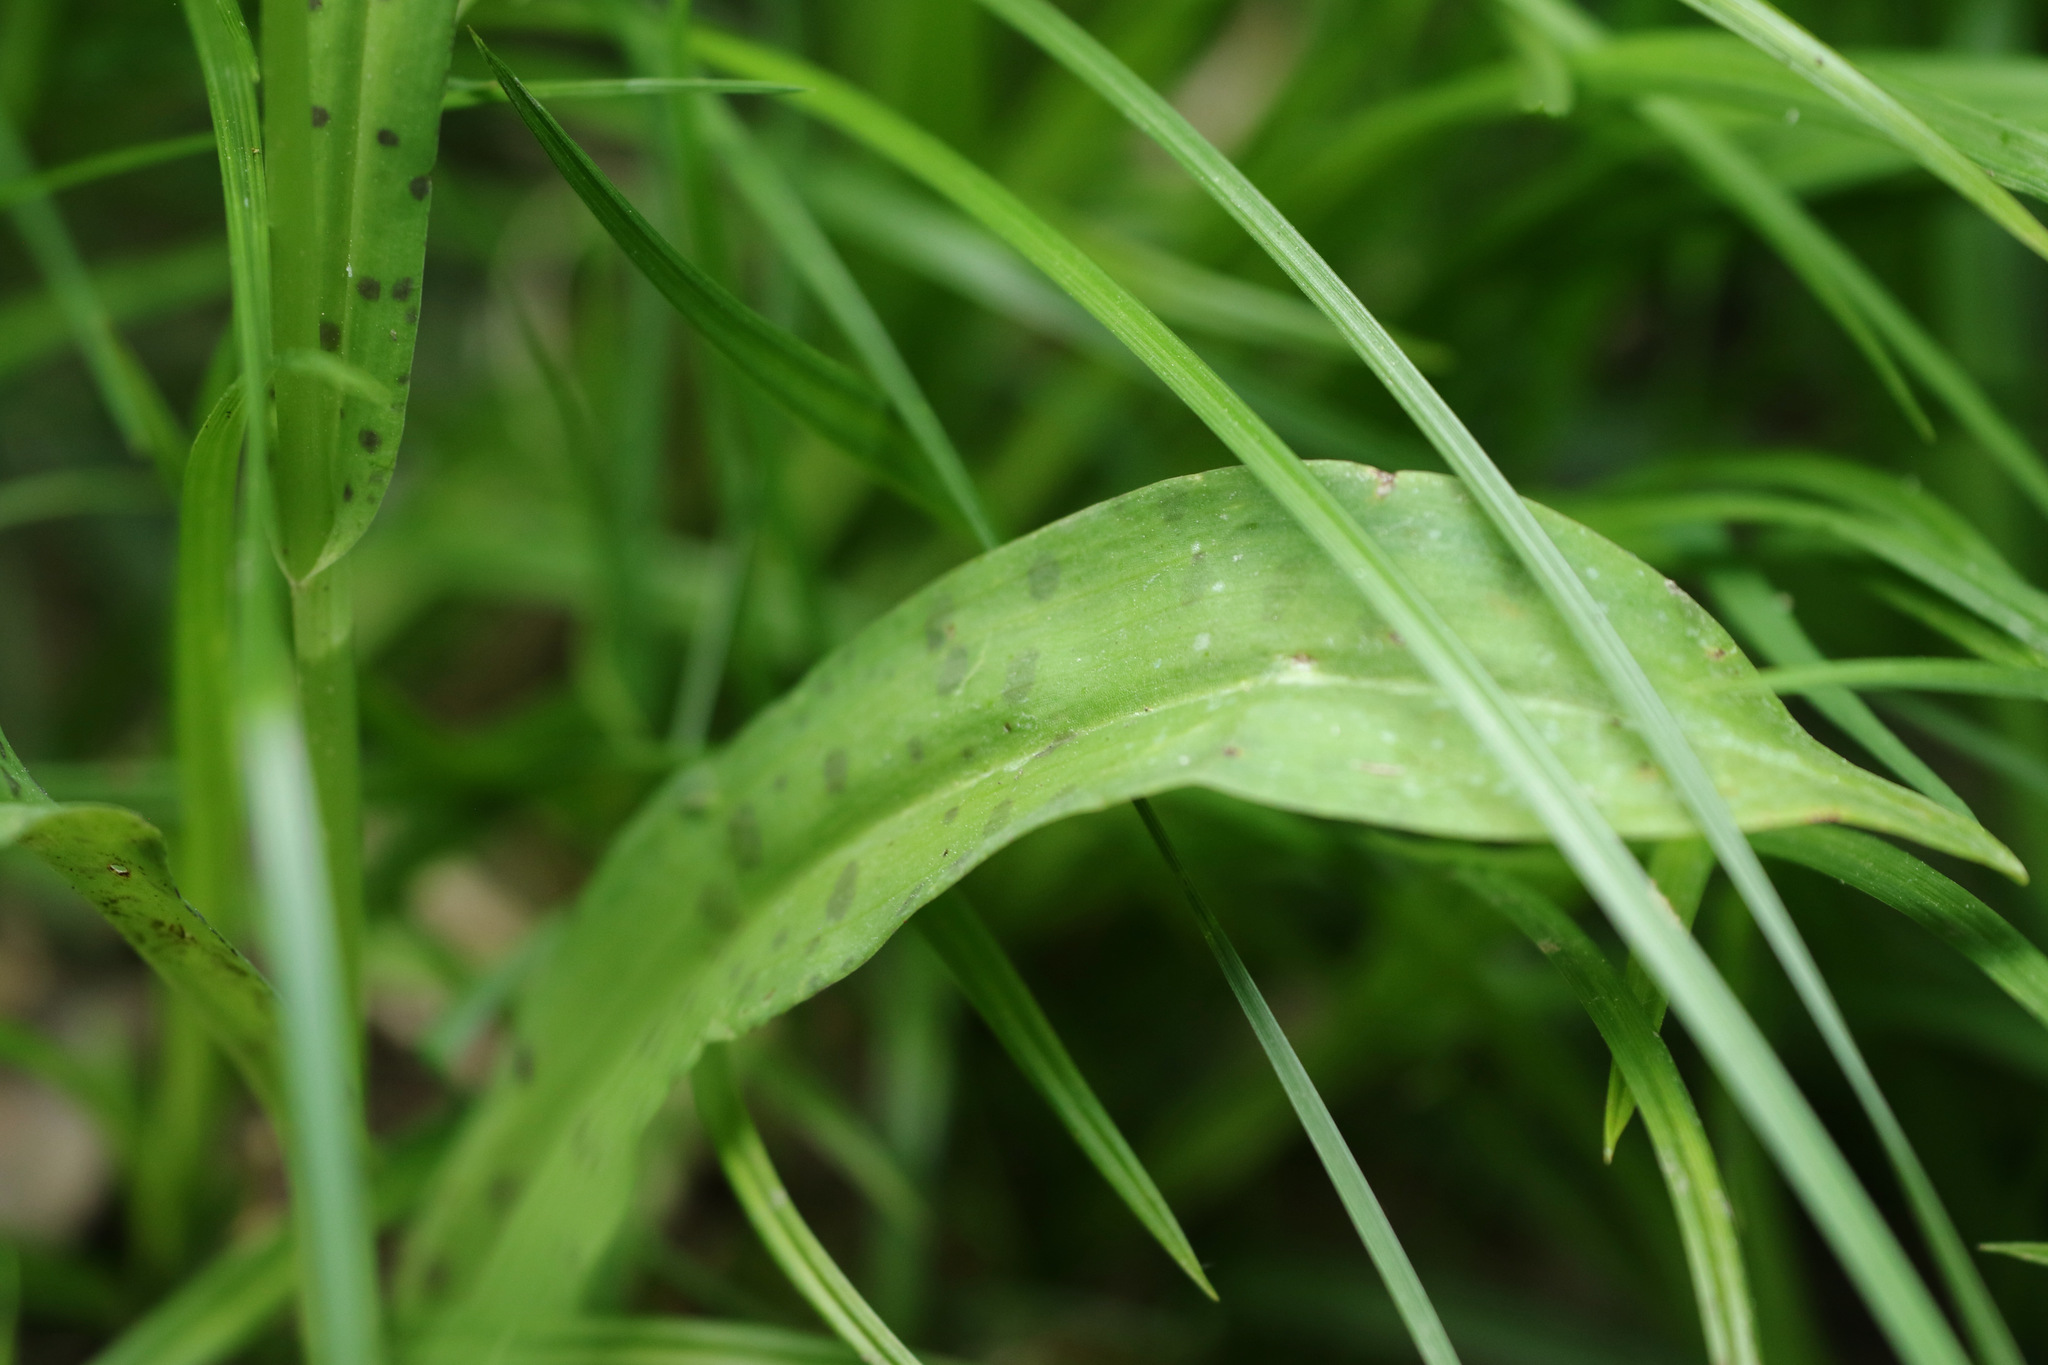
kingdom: Plantae
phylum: Tracheophyta
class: Liliopsida
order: Asparagales
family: Orchidaceae
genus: Dactylorhiza
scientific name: Dactylorhiza maculata
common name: Heath spotted-orchid
